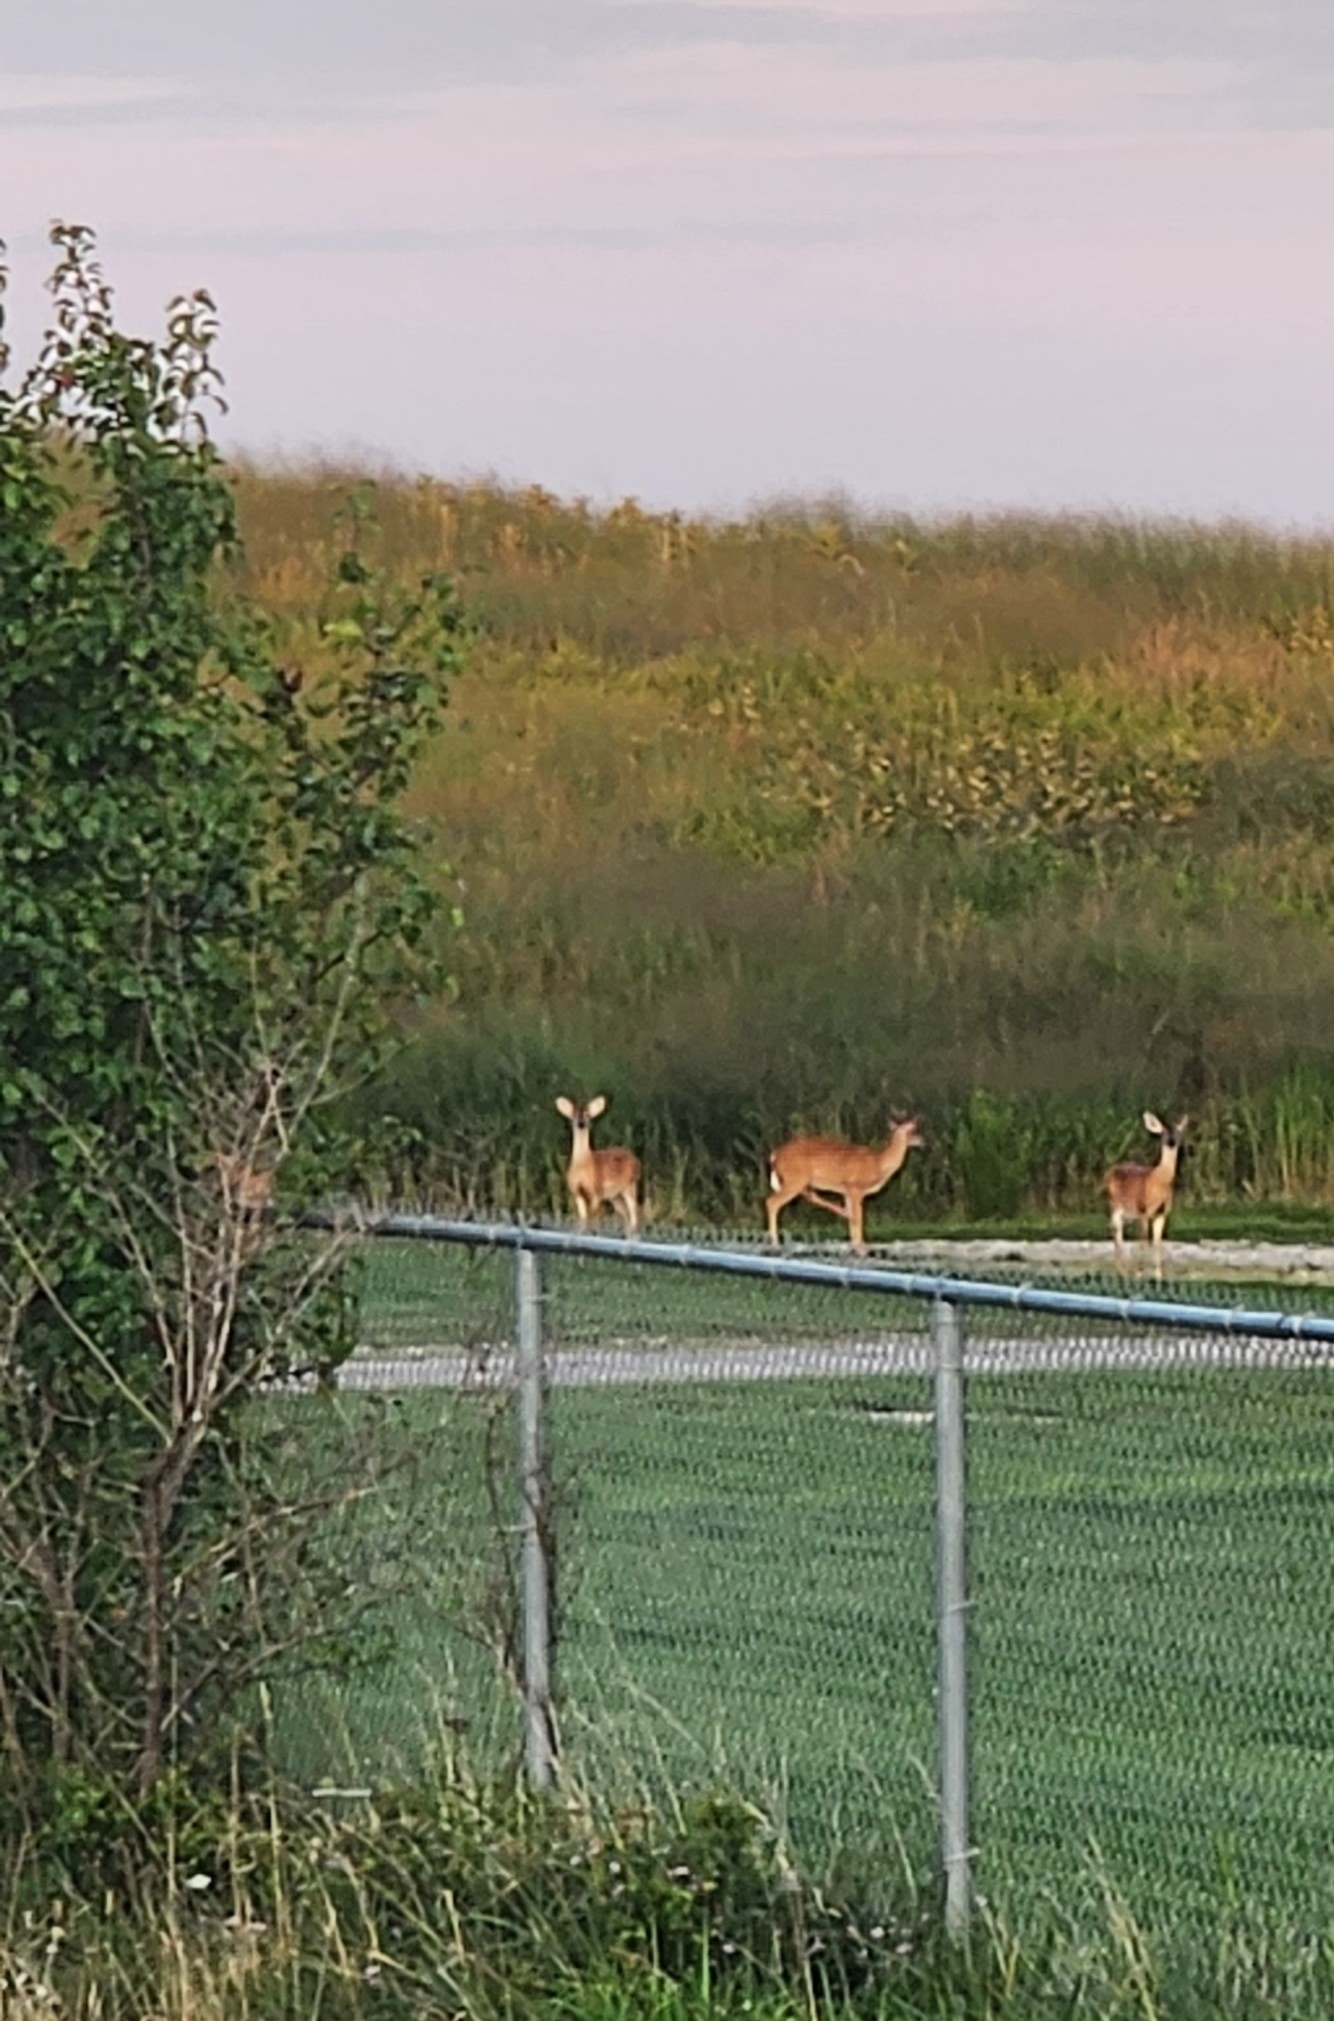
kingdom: Animalia
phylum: Chordata
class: Mammalia
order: Artiodactyla
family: Cervidae
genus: Odocoileus
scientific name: Odocoileus virginianus
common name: White-tailed deer
